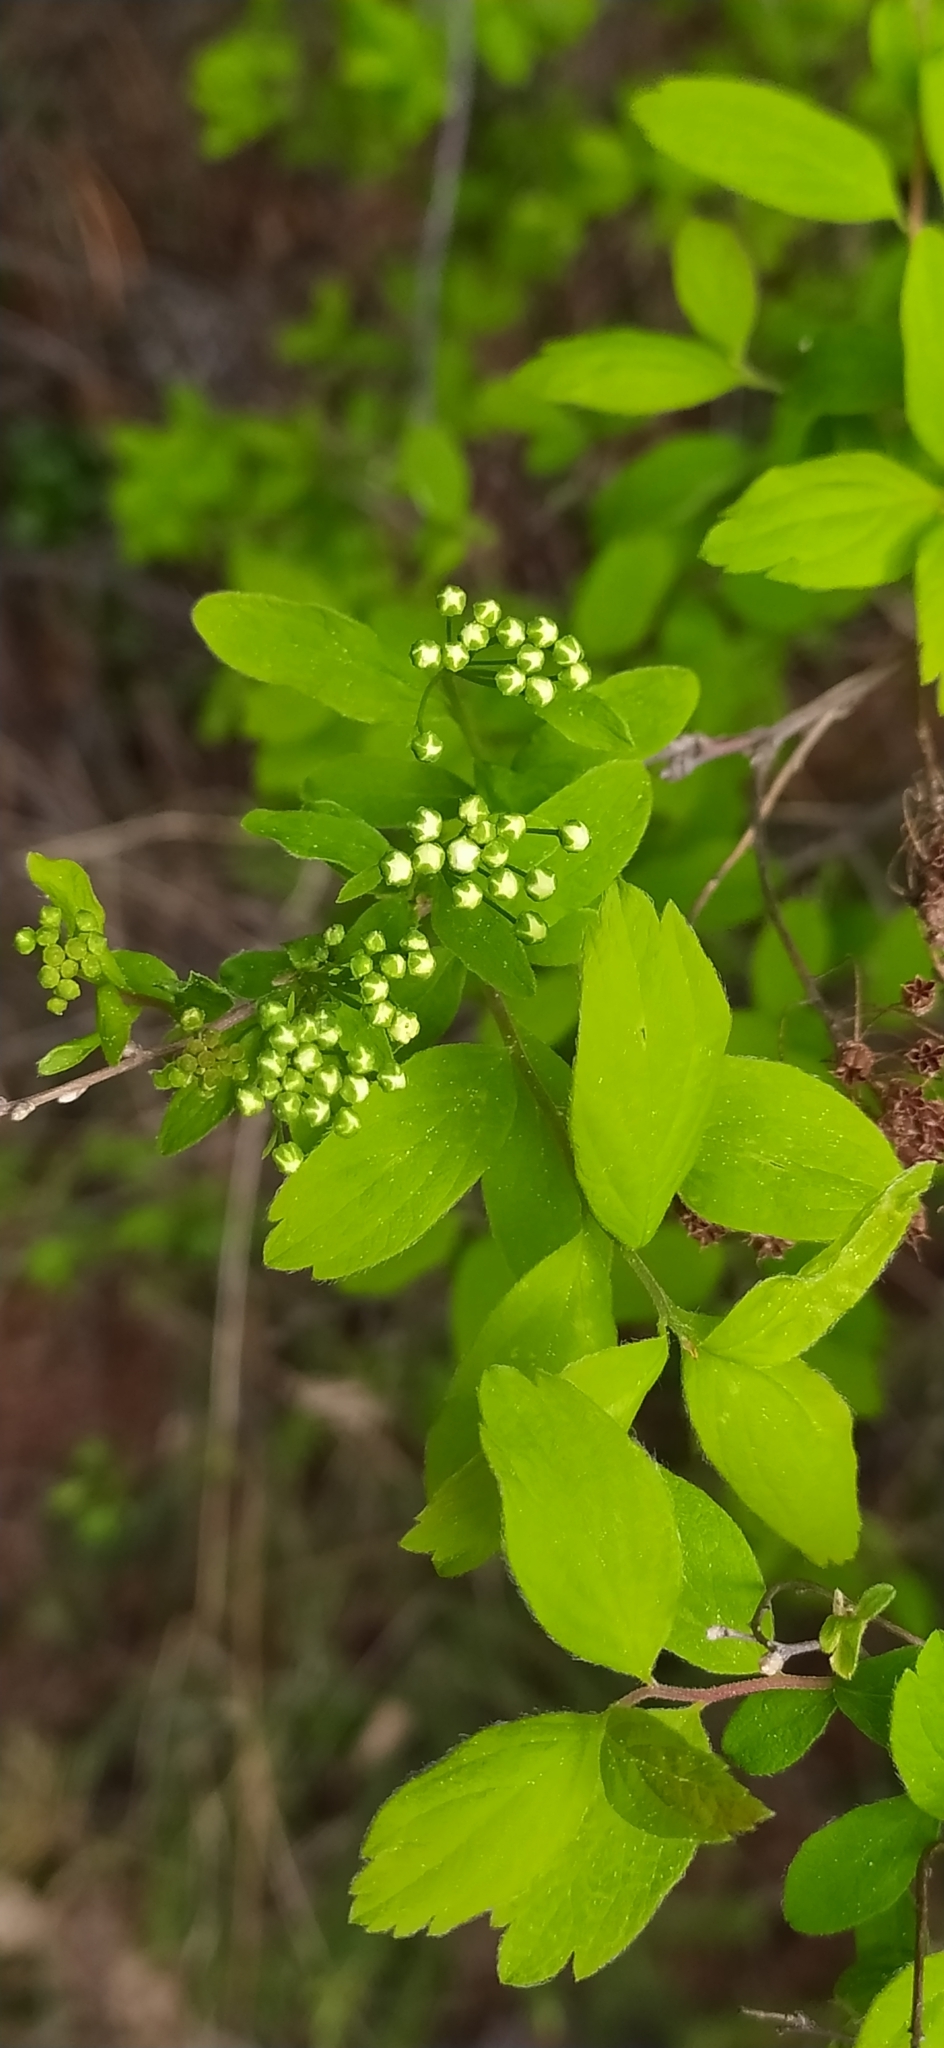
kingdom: Plantae
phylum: Tracheophyta
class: Magnoliopsida
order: Rosales
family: Rosaceae
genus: Spiraea
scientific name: Spiraea media
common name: Russian spiraea
